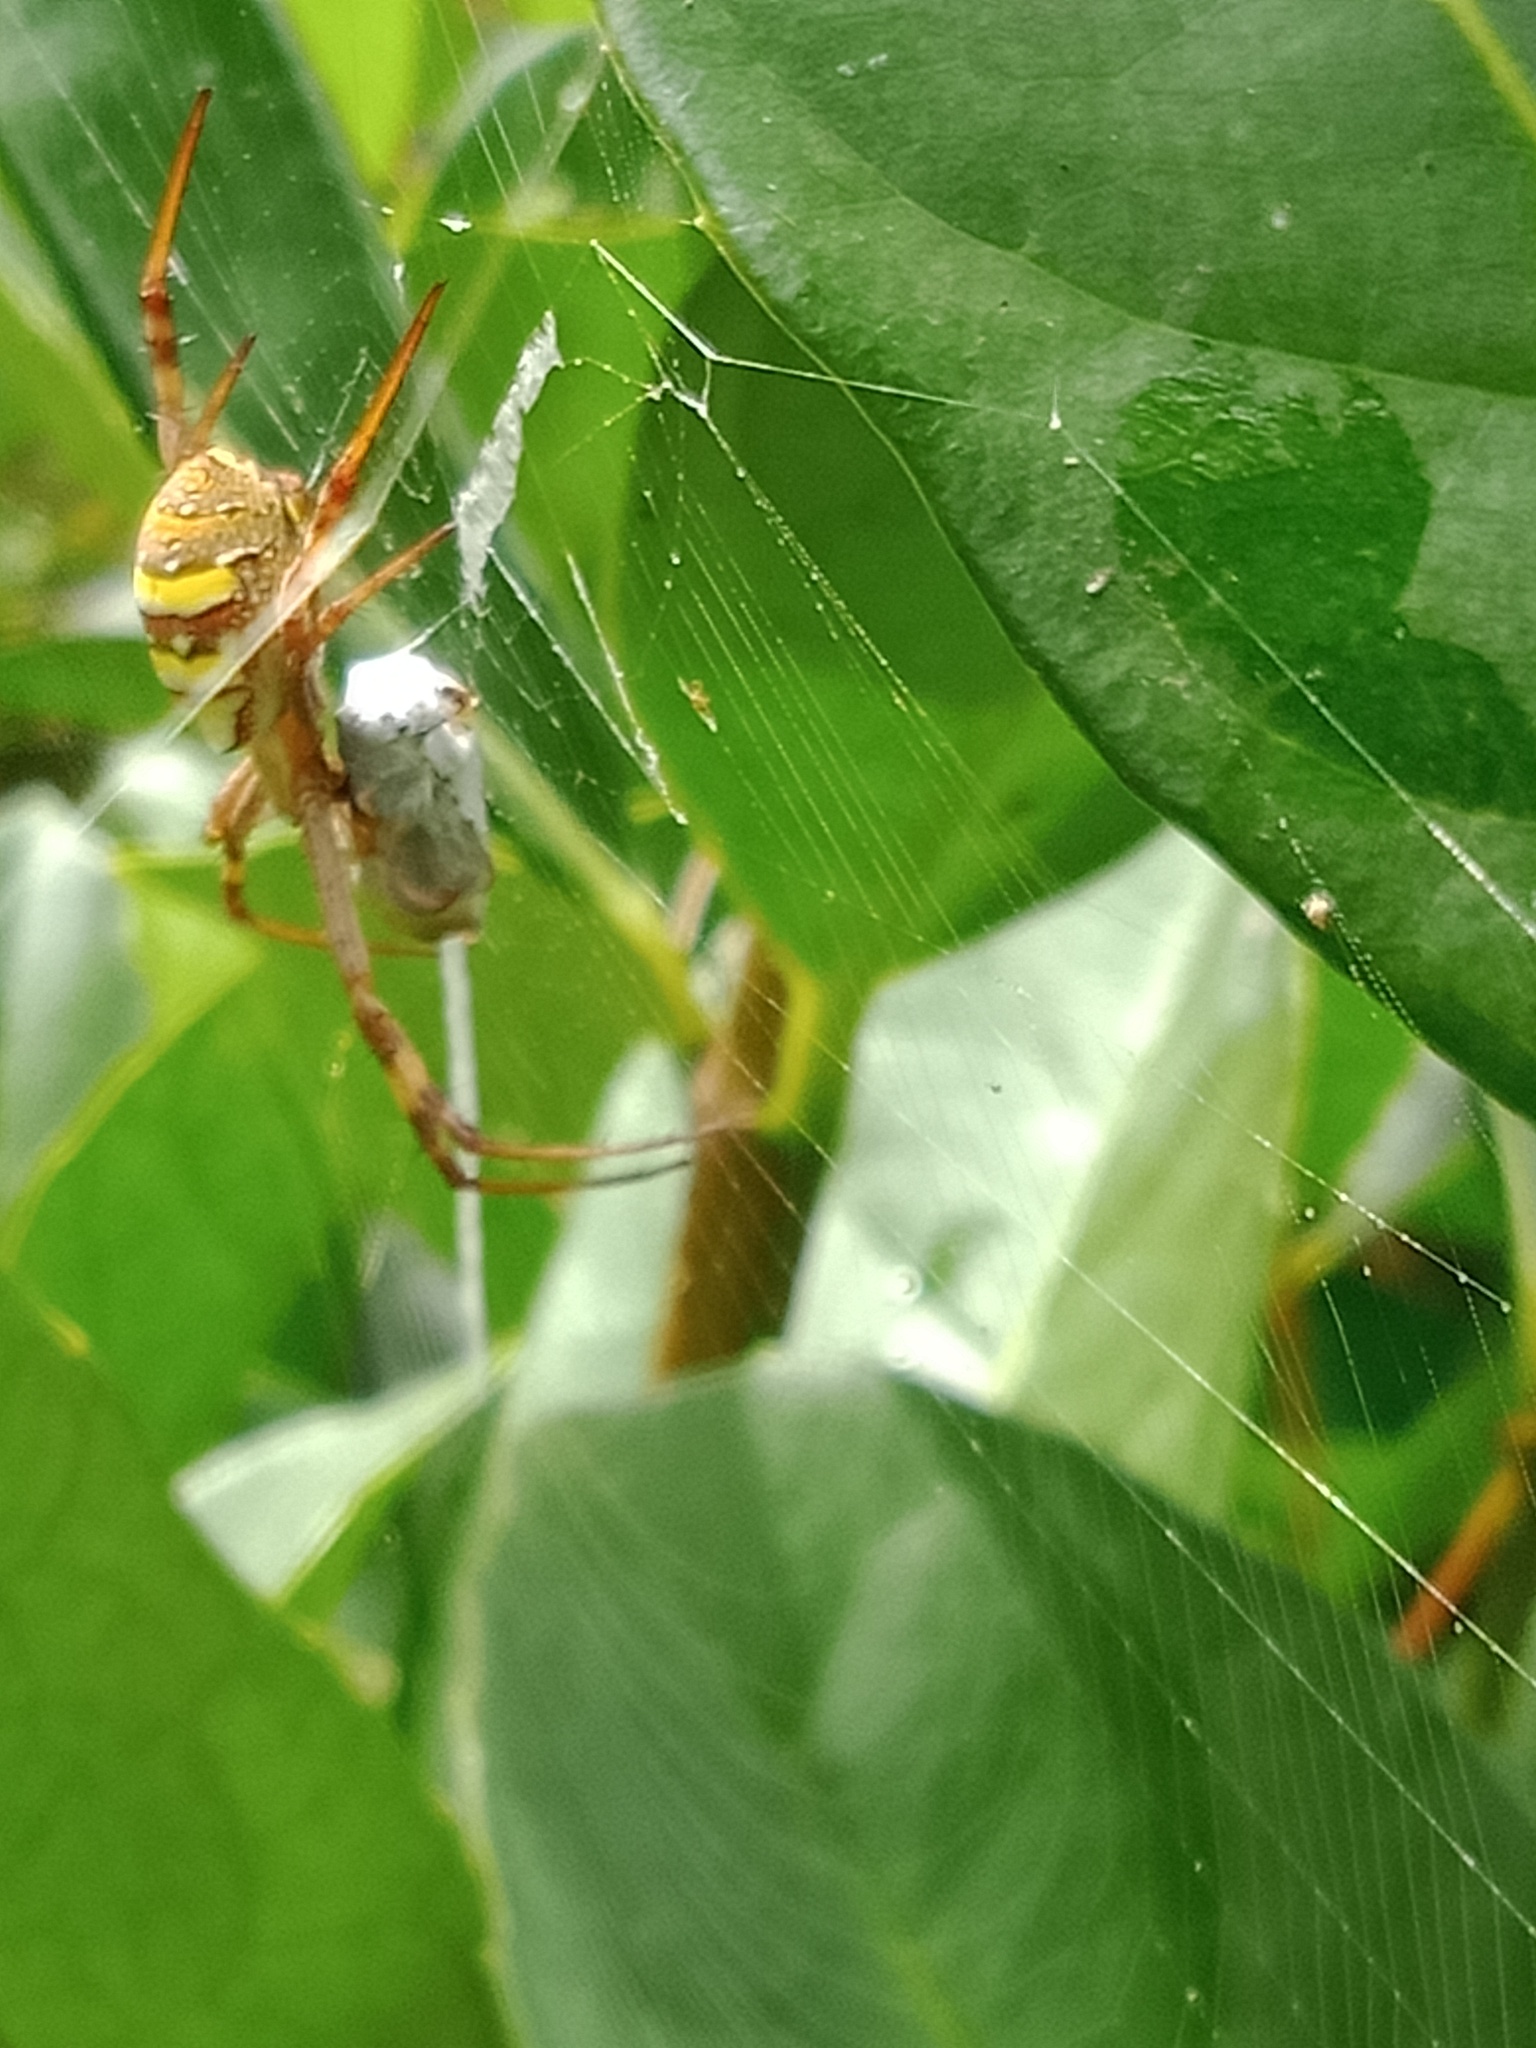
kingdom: Animalia
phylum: Arthropoda
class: Arachnida
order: Araneae
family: Araneidae
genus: Argiope
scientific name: Argiope keyserlingi
